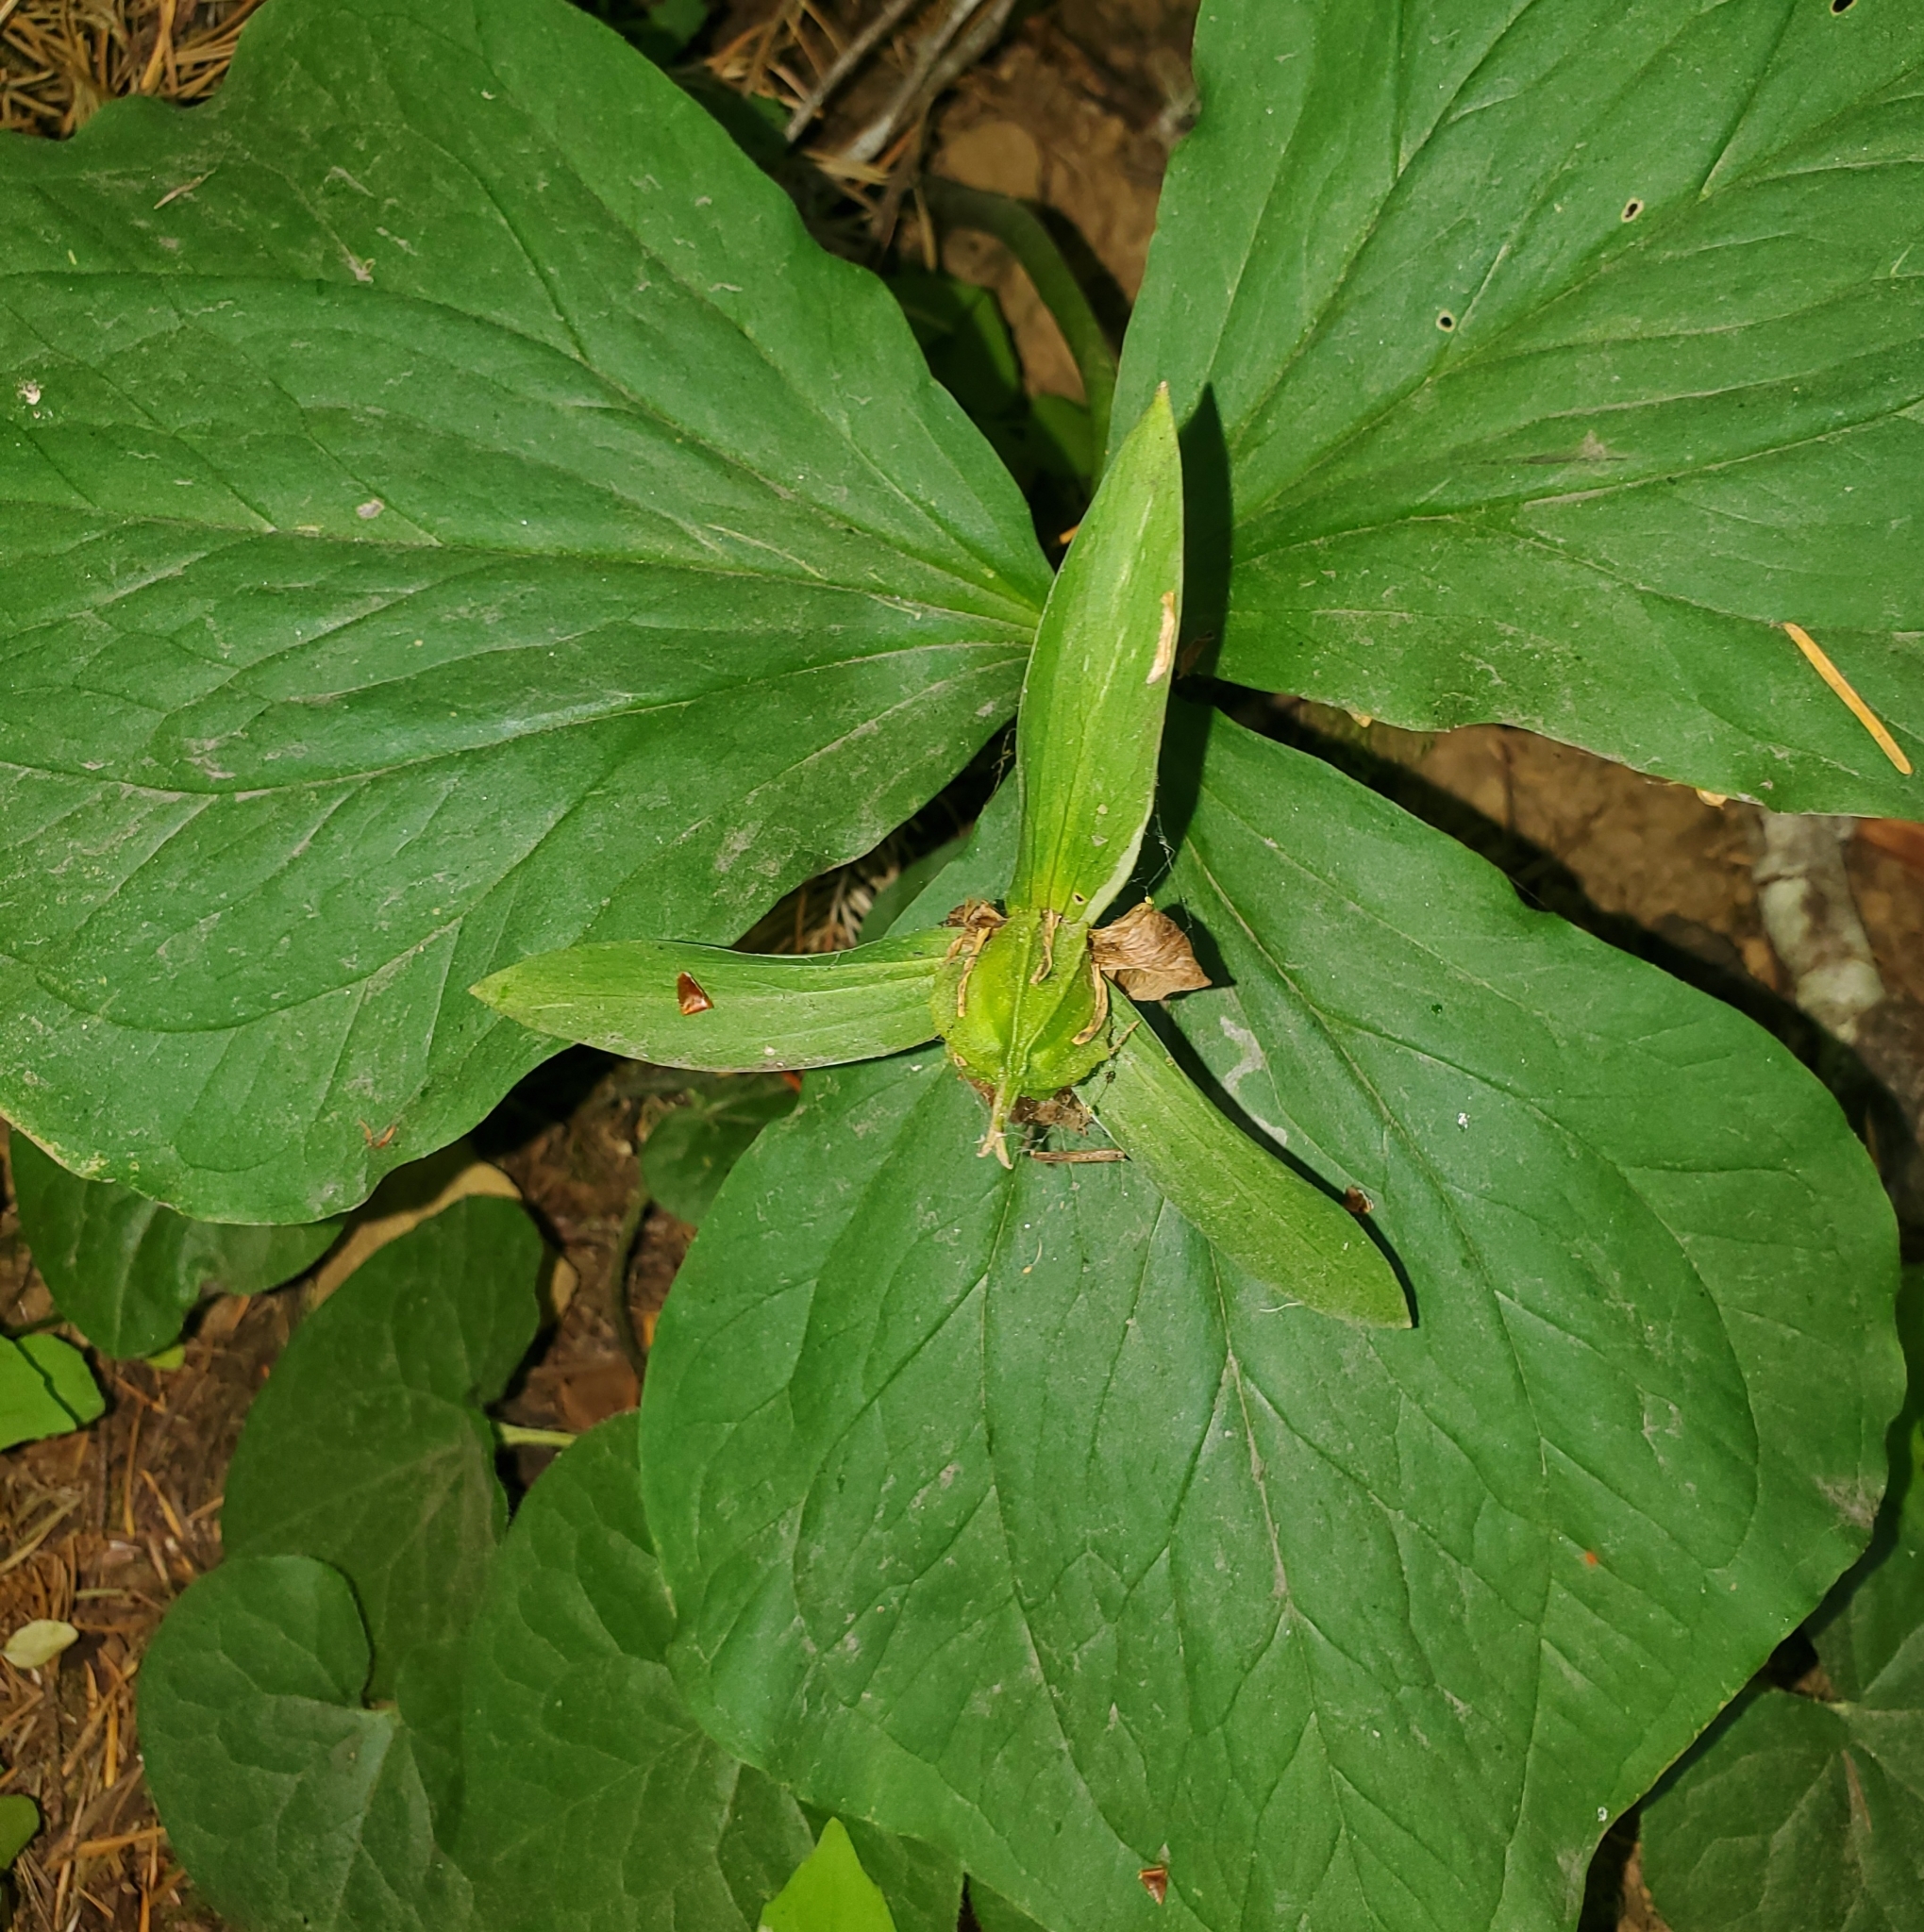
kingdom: Plantae
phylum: Tracheophyta
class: Liliopsida
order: Liliales
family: Melanthiaceae
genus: Trillium
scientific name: Trillium ovatum
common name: Pacific trillium
